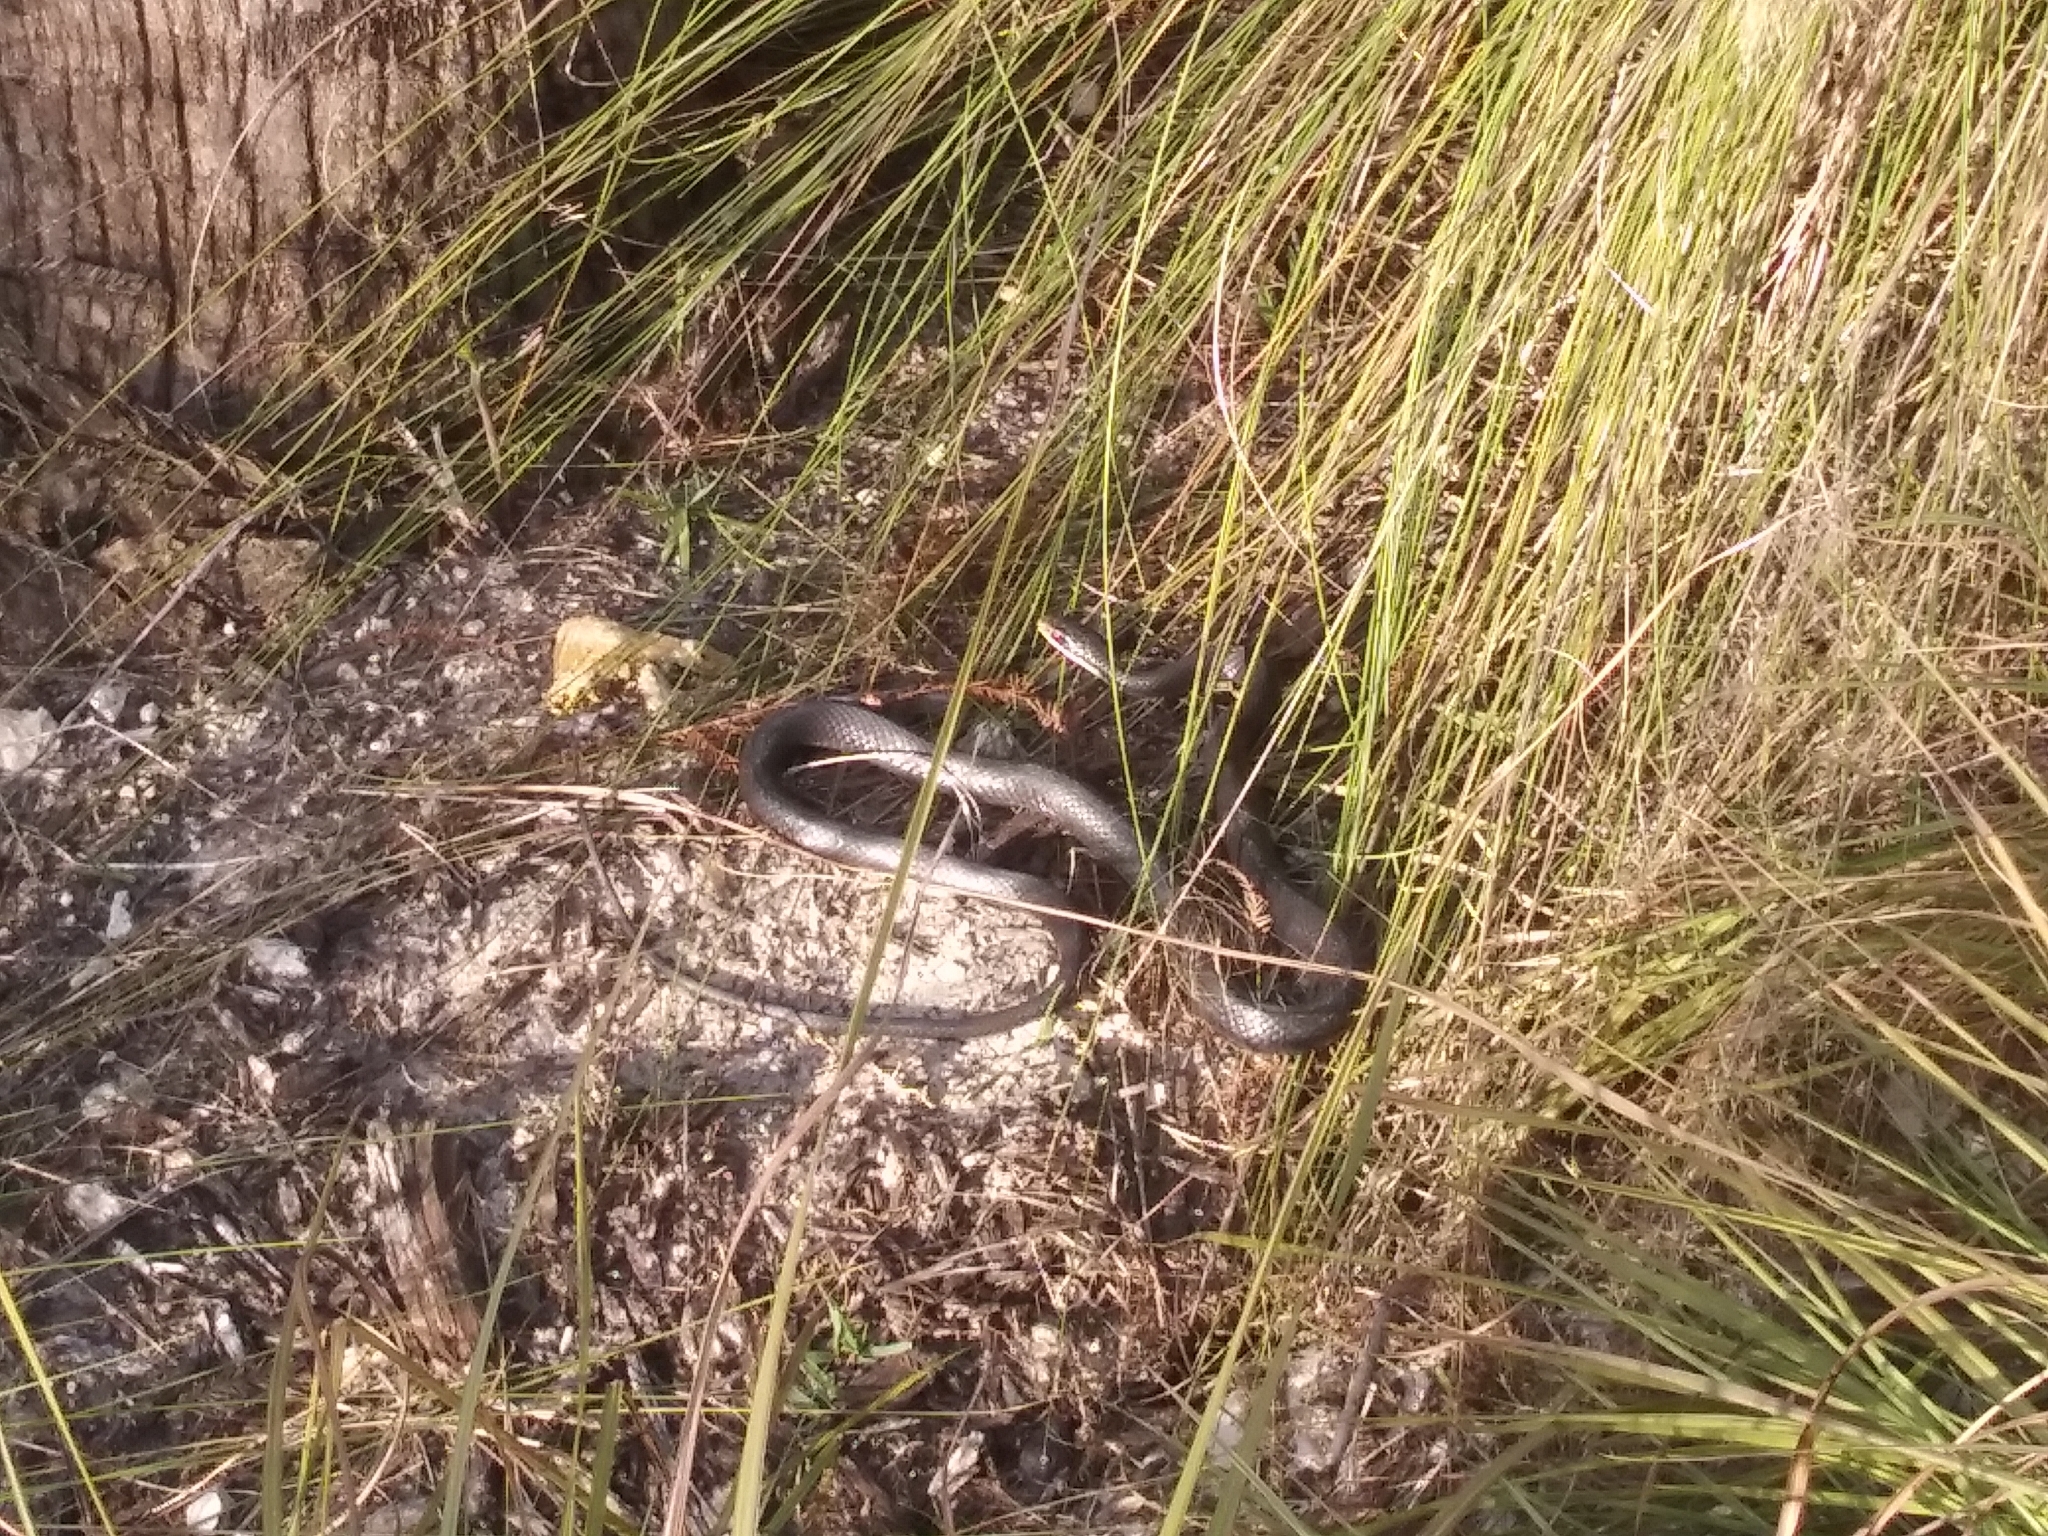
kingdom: Animalia
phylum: Chordata
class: Squamata
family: Colubridae
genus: Coluber
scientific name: Coluber constrictor
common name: Eastern racer
